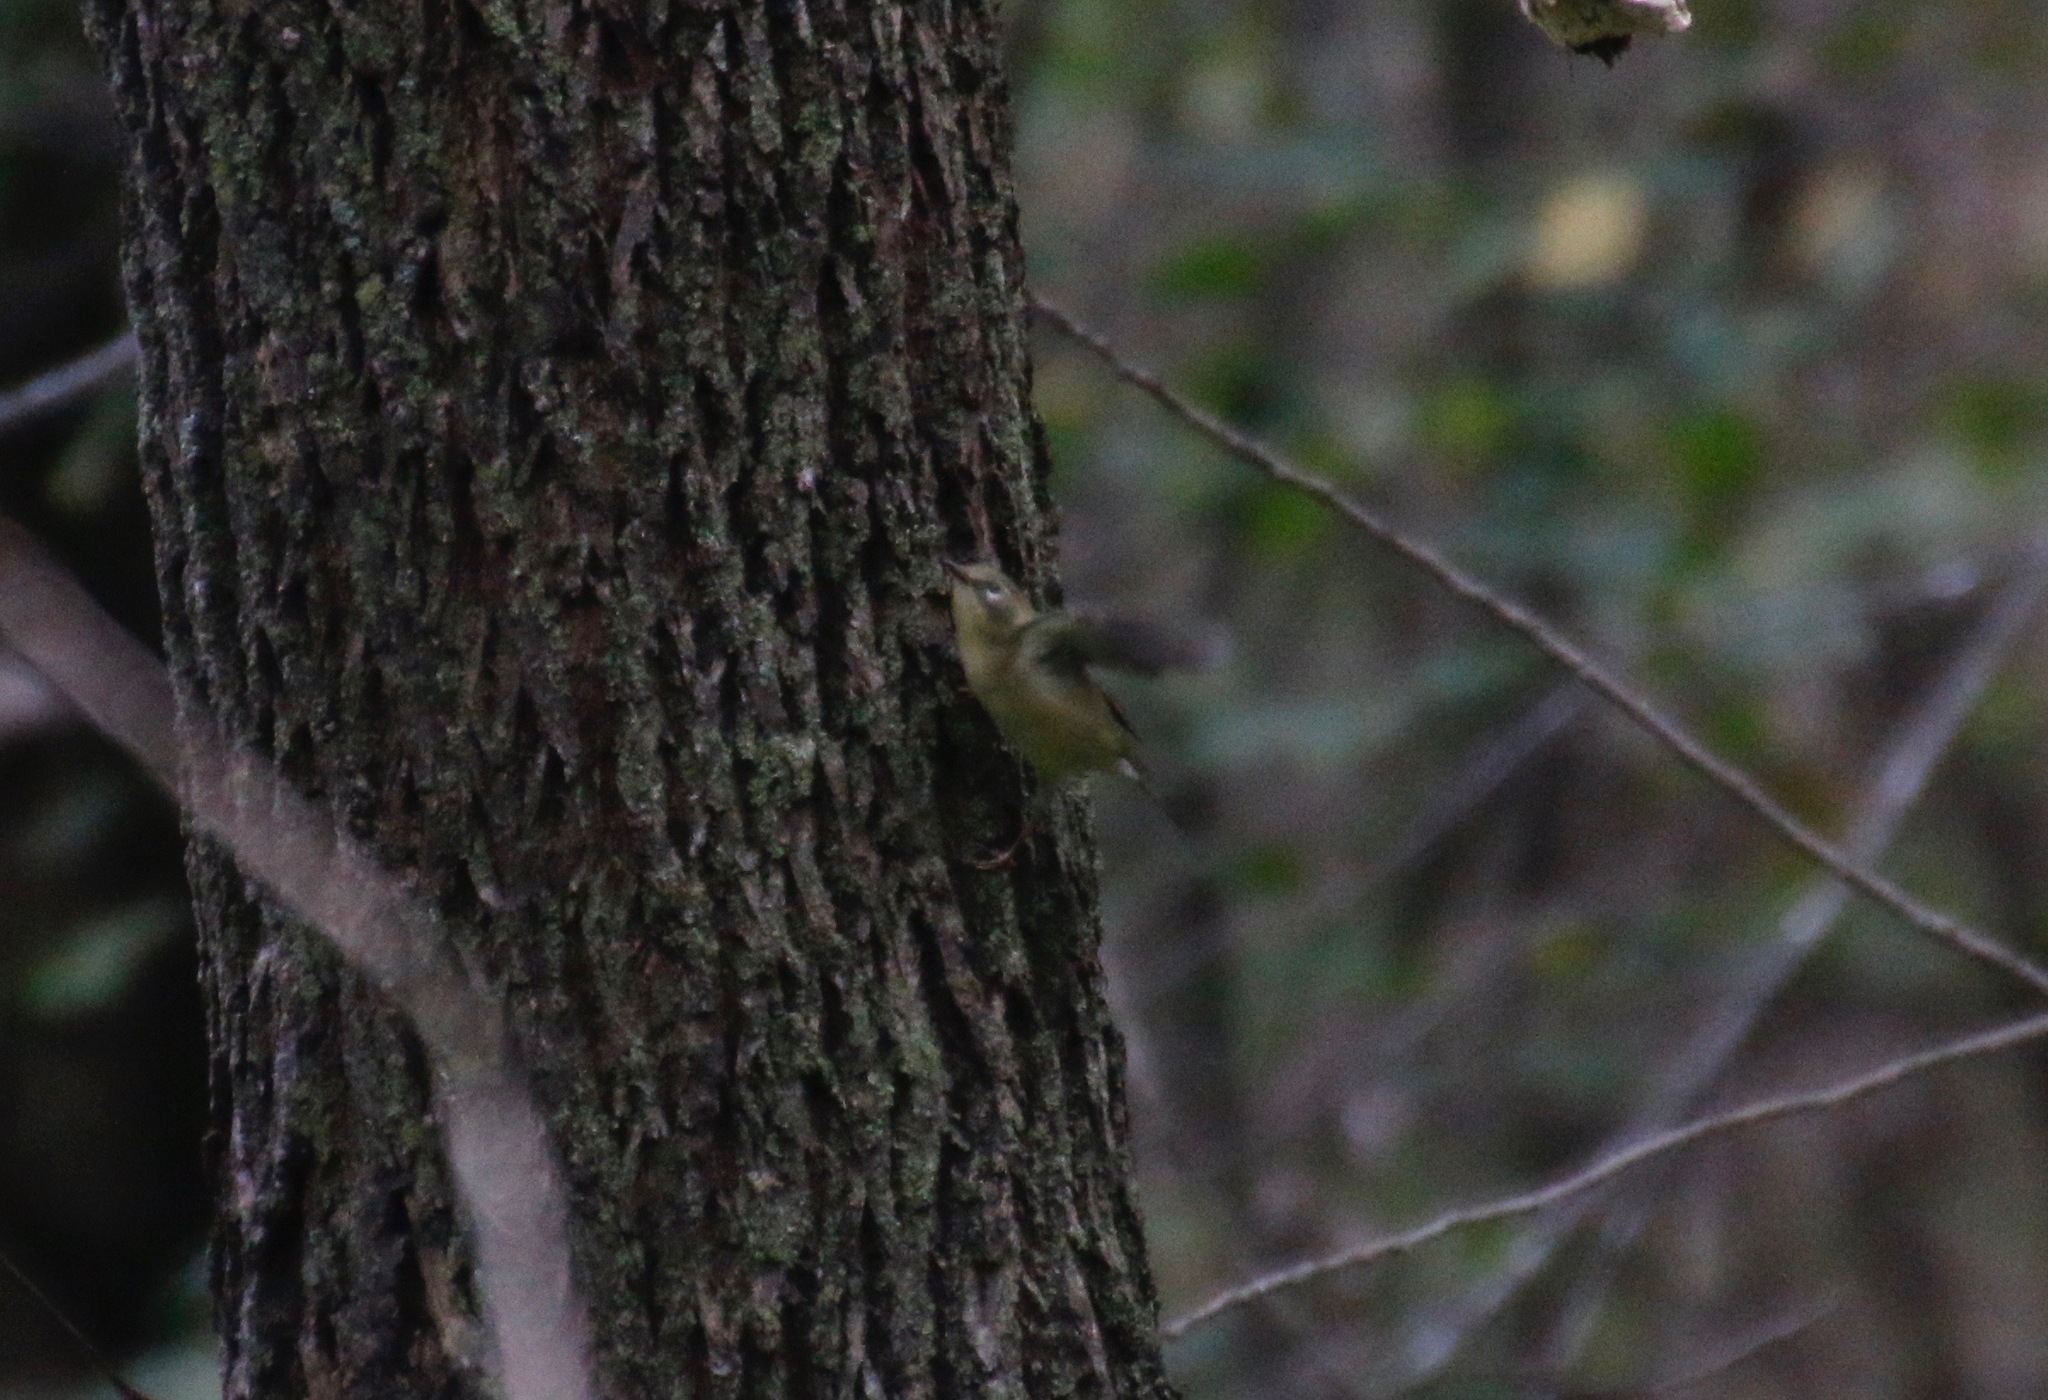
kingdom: Animalia
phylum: Chordata
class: Aves
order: Passeriformes
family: Parulidae
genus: Setophaga
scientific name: Setophaga caerulescens
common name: Black-throated blue warbler
